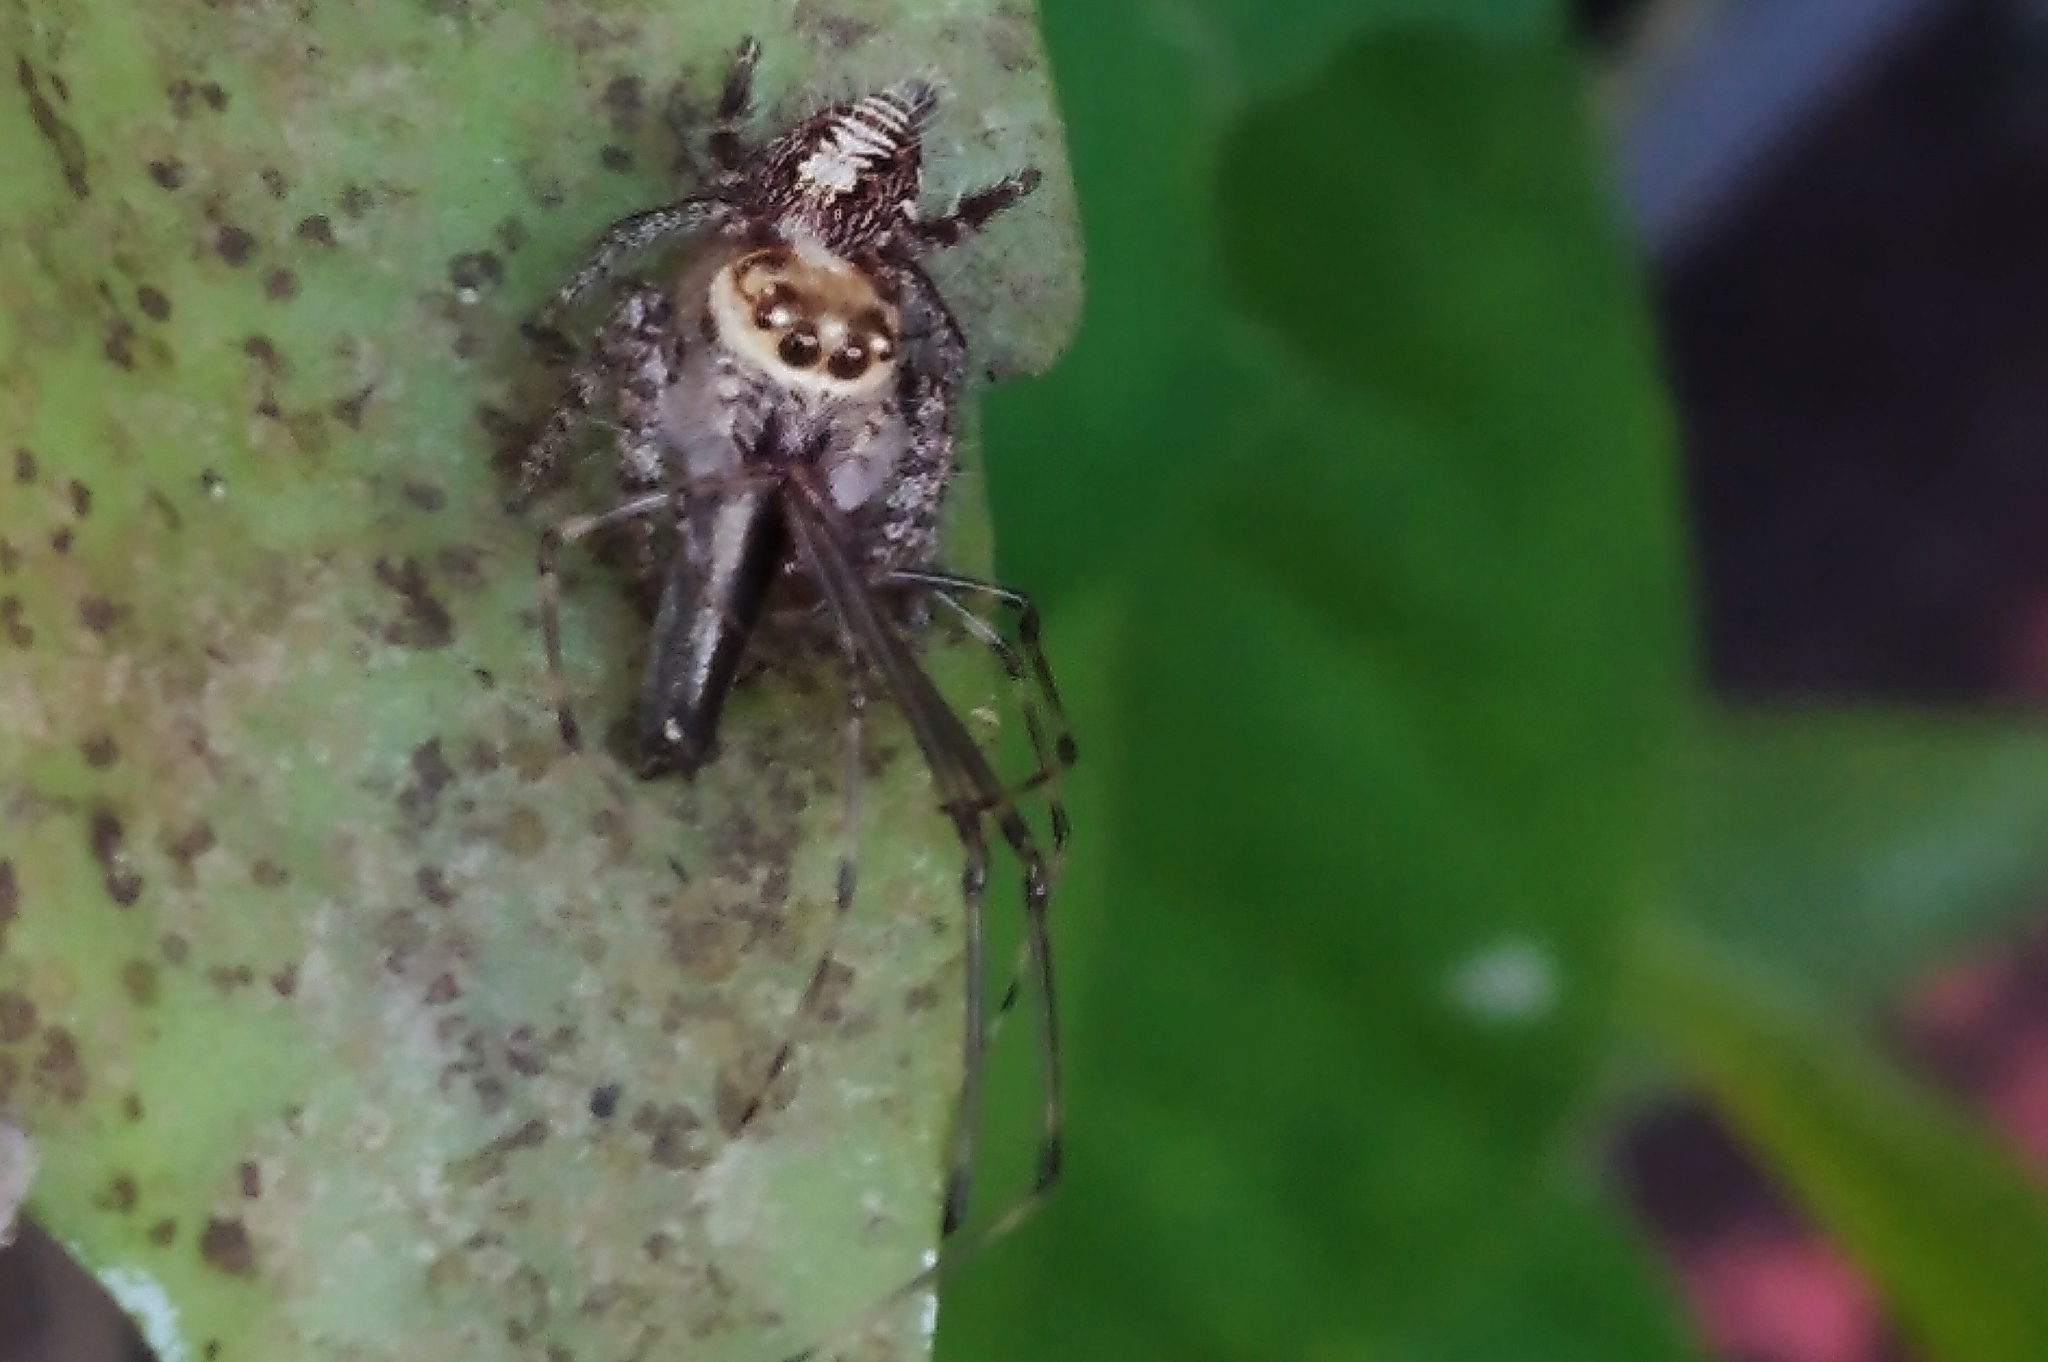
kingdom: Animalia
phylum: Arthropoda
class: Arachnida
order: Araneae
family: Salticidae
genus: Hyllus
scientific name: Hyllus semicupreus
